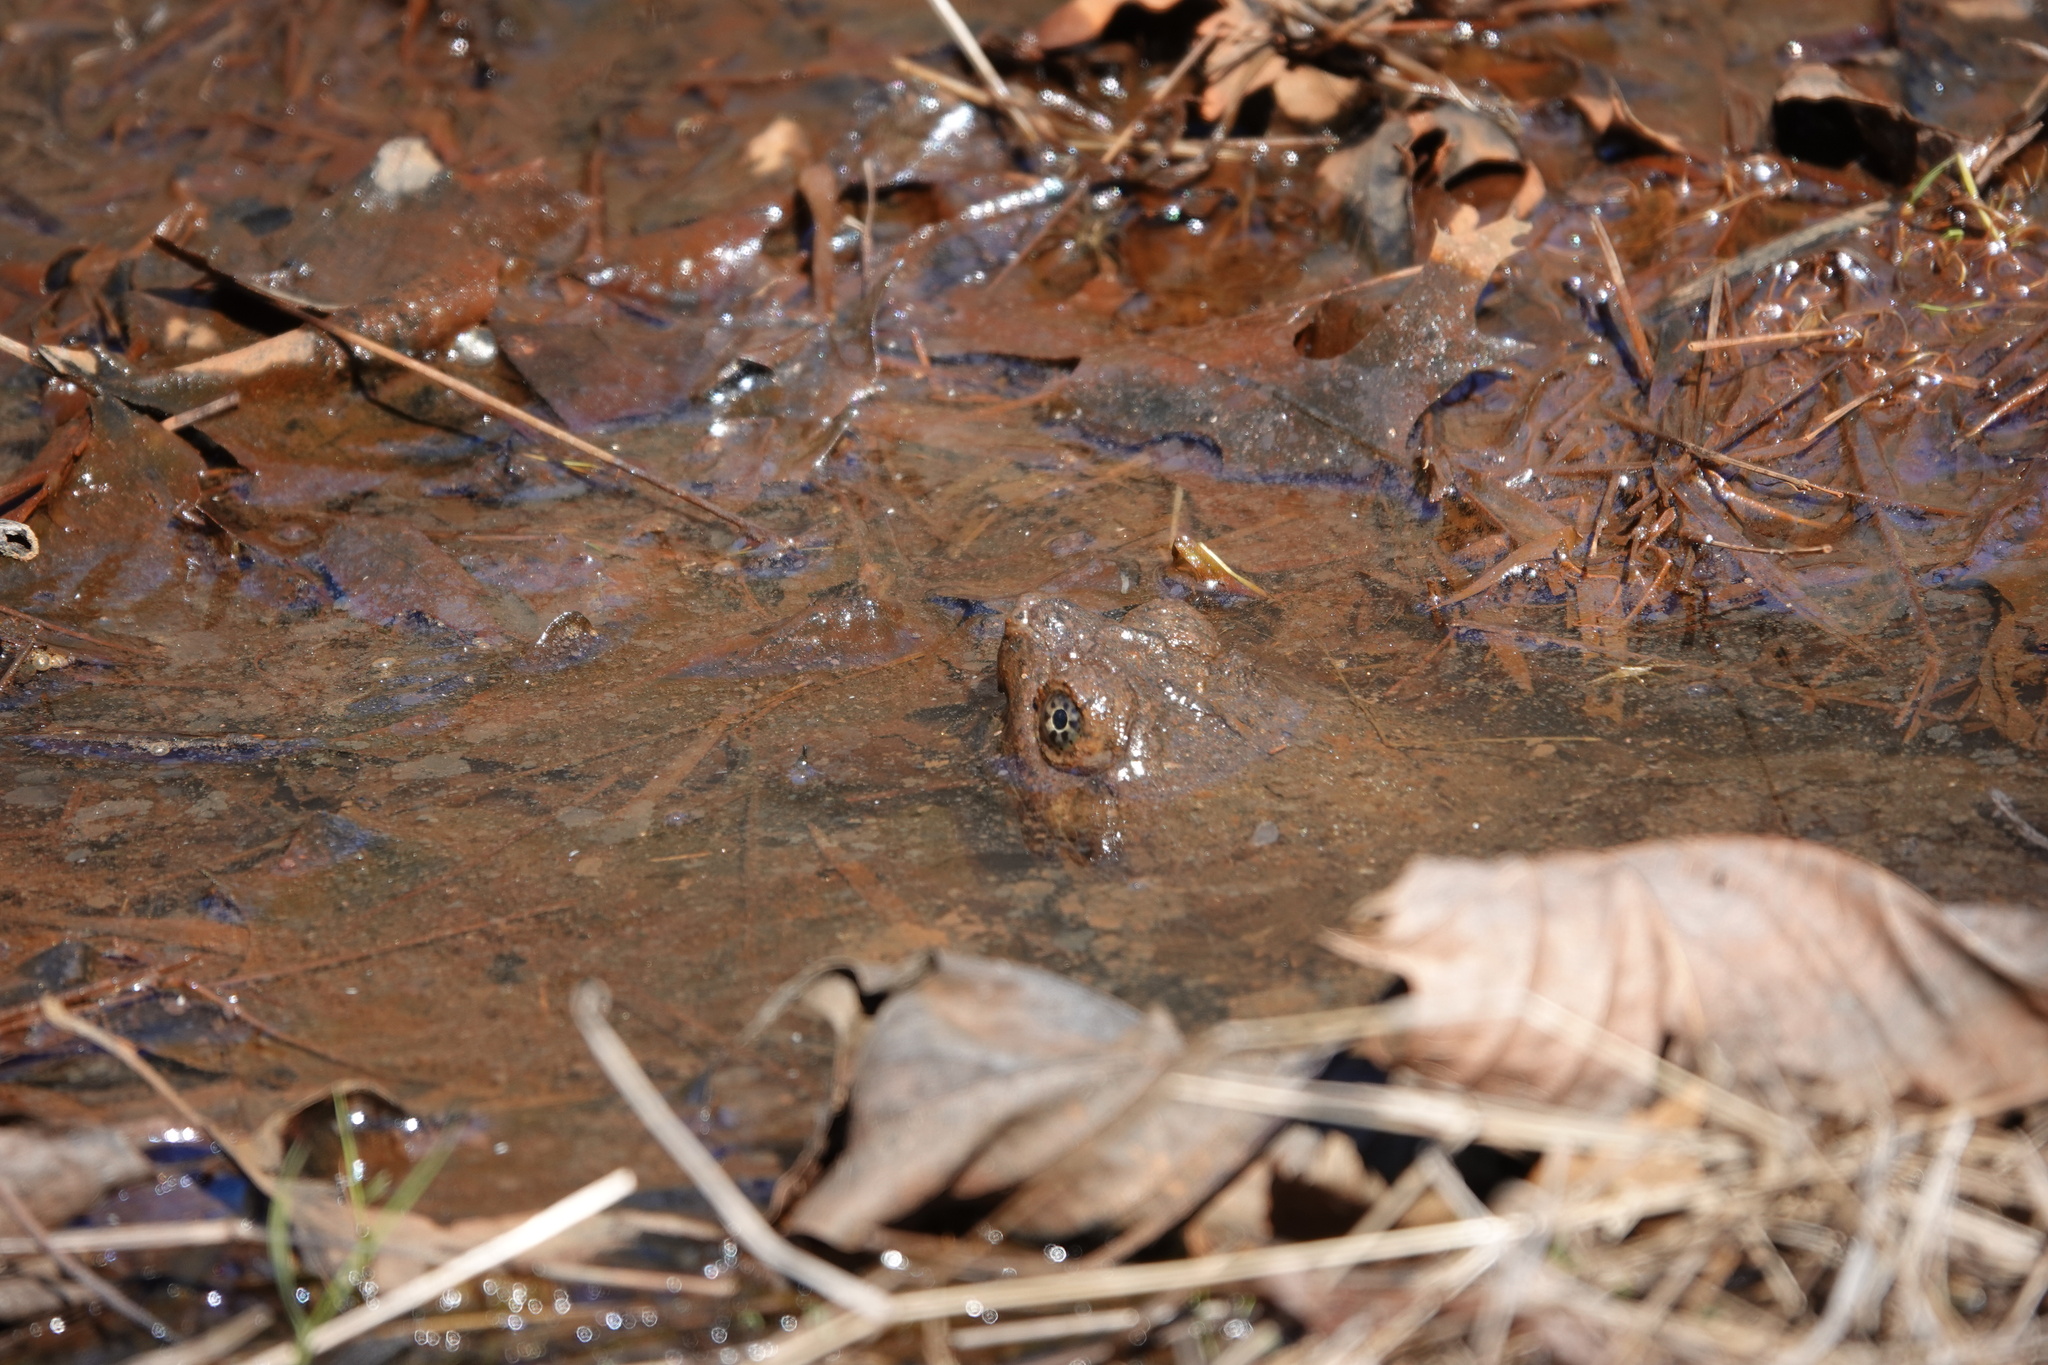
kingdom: Animalia
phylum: Chordata
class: Testudines
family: Chelydridae
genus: Chelydra
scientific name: Chelydra serpentina
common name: Common snapping turtle
